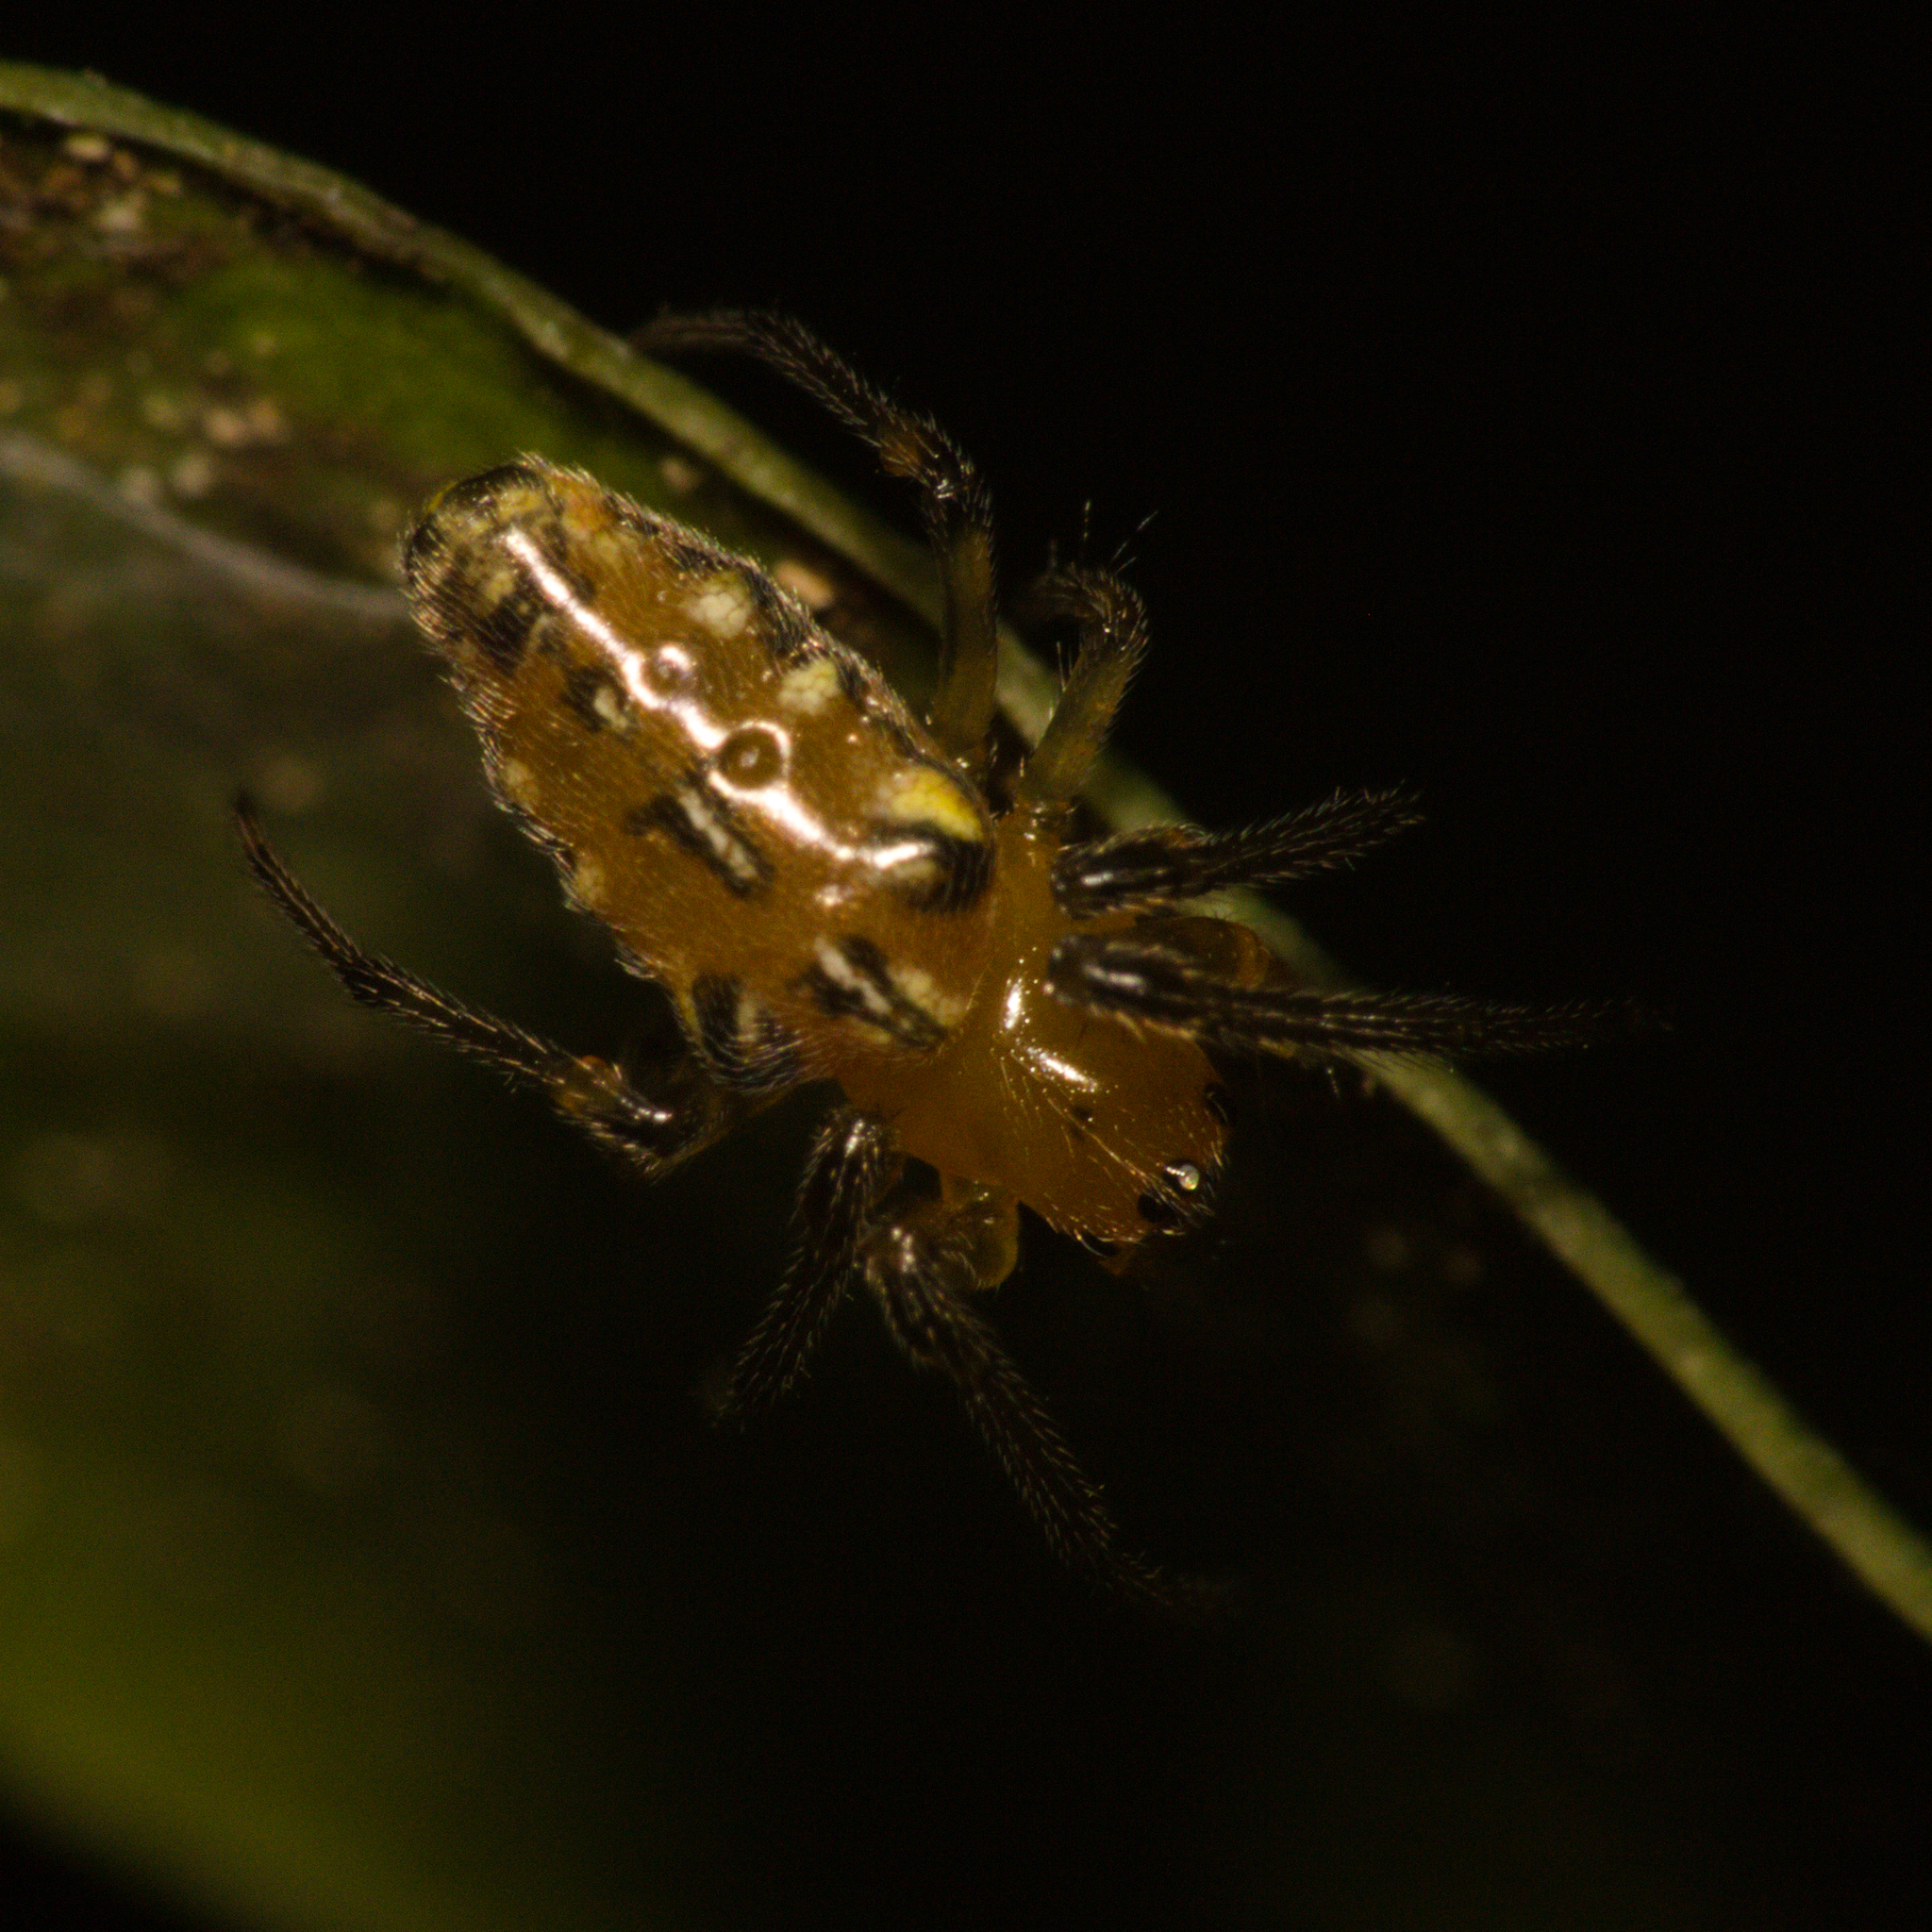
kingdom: Animalia
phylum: Arthropoda
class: Arachnida
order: Araneae
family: Araneidae
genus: Alpaida
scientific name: Alpaida scriba
